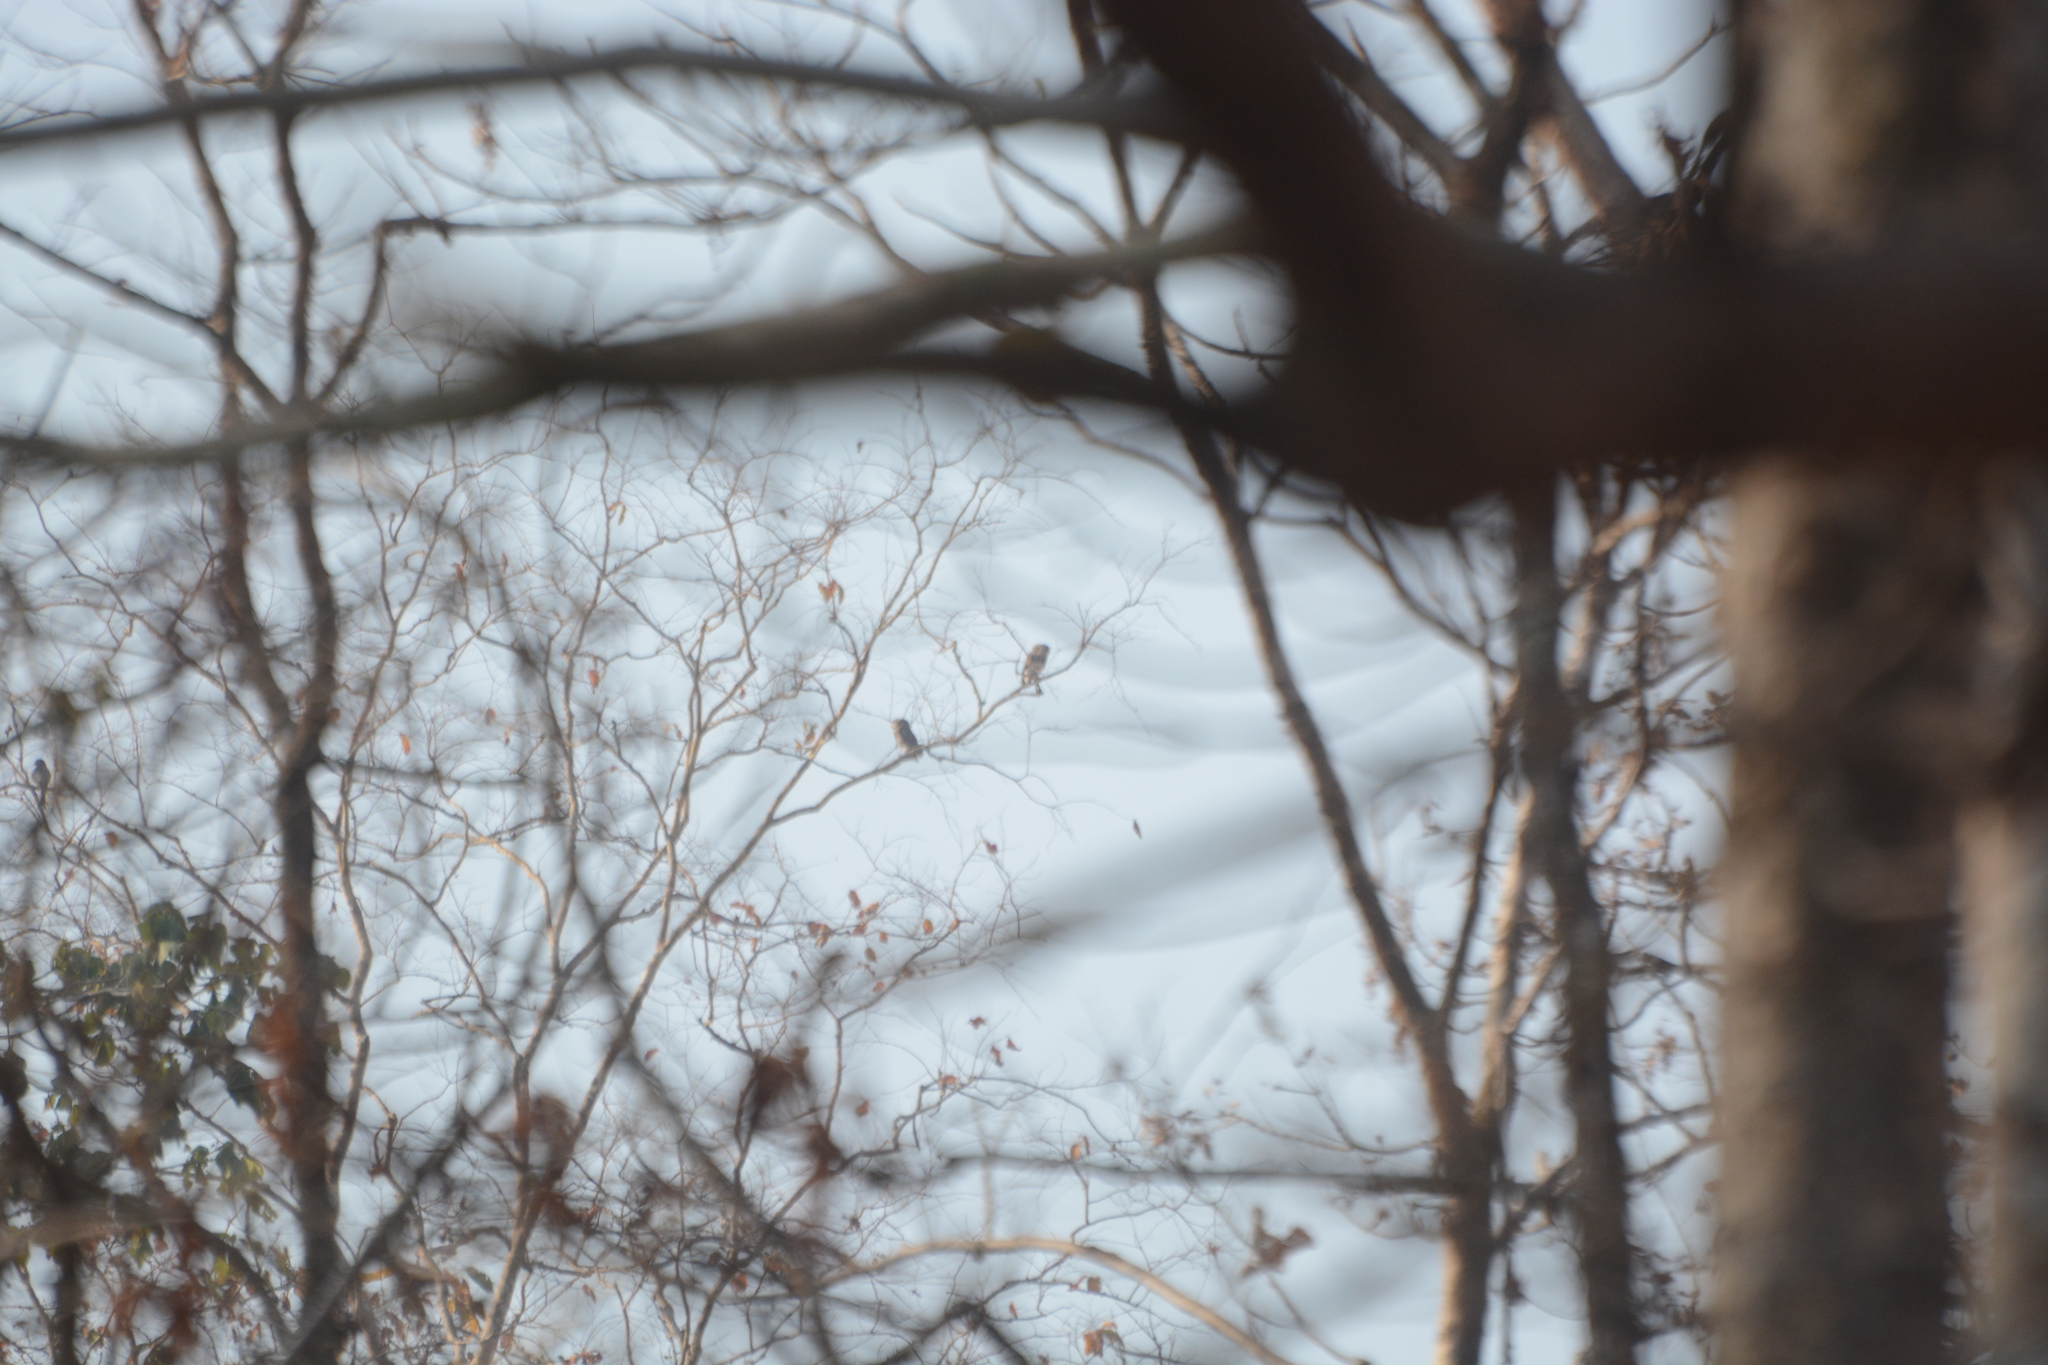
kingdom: Animalia
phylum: Chordata
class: Aves
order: Strigiformes
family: Strigidae
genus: Heteroglaux
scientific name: Heteroglaux blewitti
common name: Forest owlet
